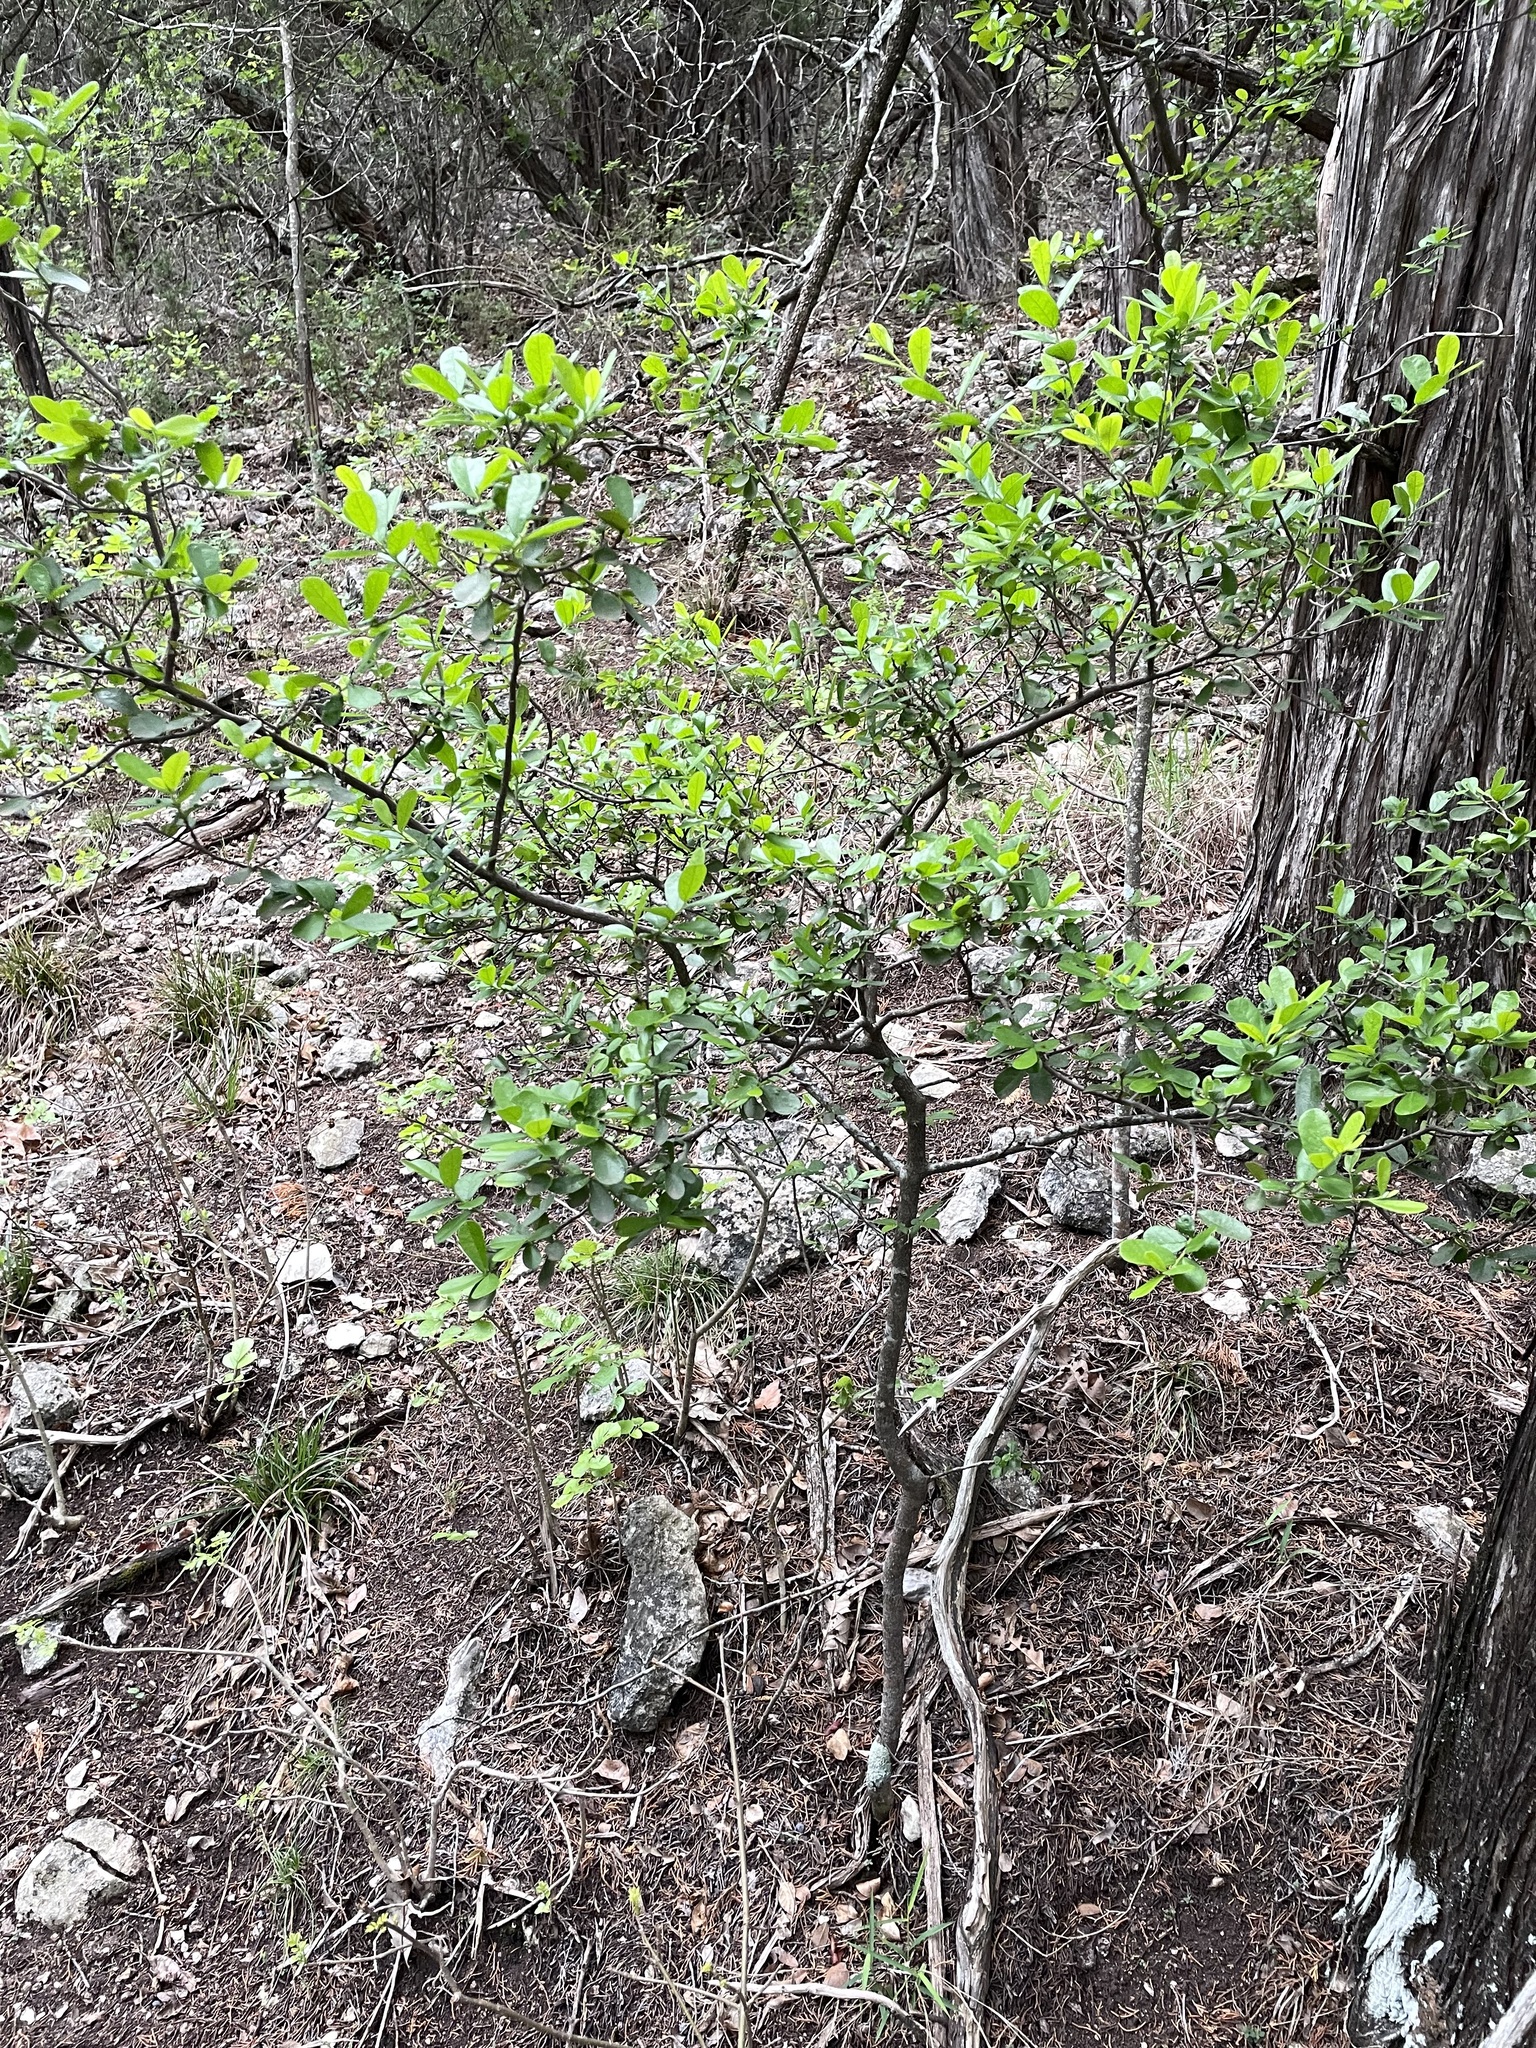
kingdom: Plantae
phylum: Tracheophyta
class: Magnoliopsida
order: Ericales
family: Ebenaceae
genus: Diospyros
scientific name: Diospyros texana
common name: Texas persimmon
